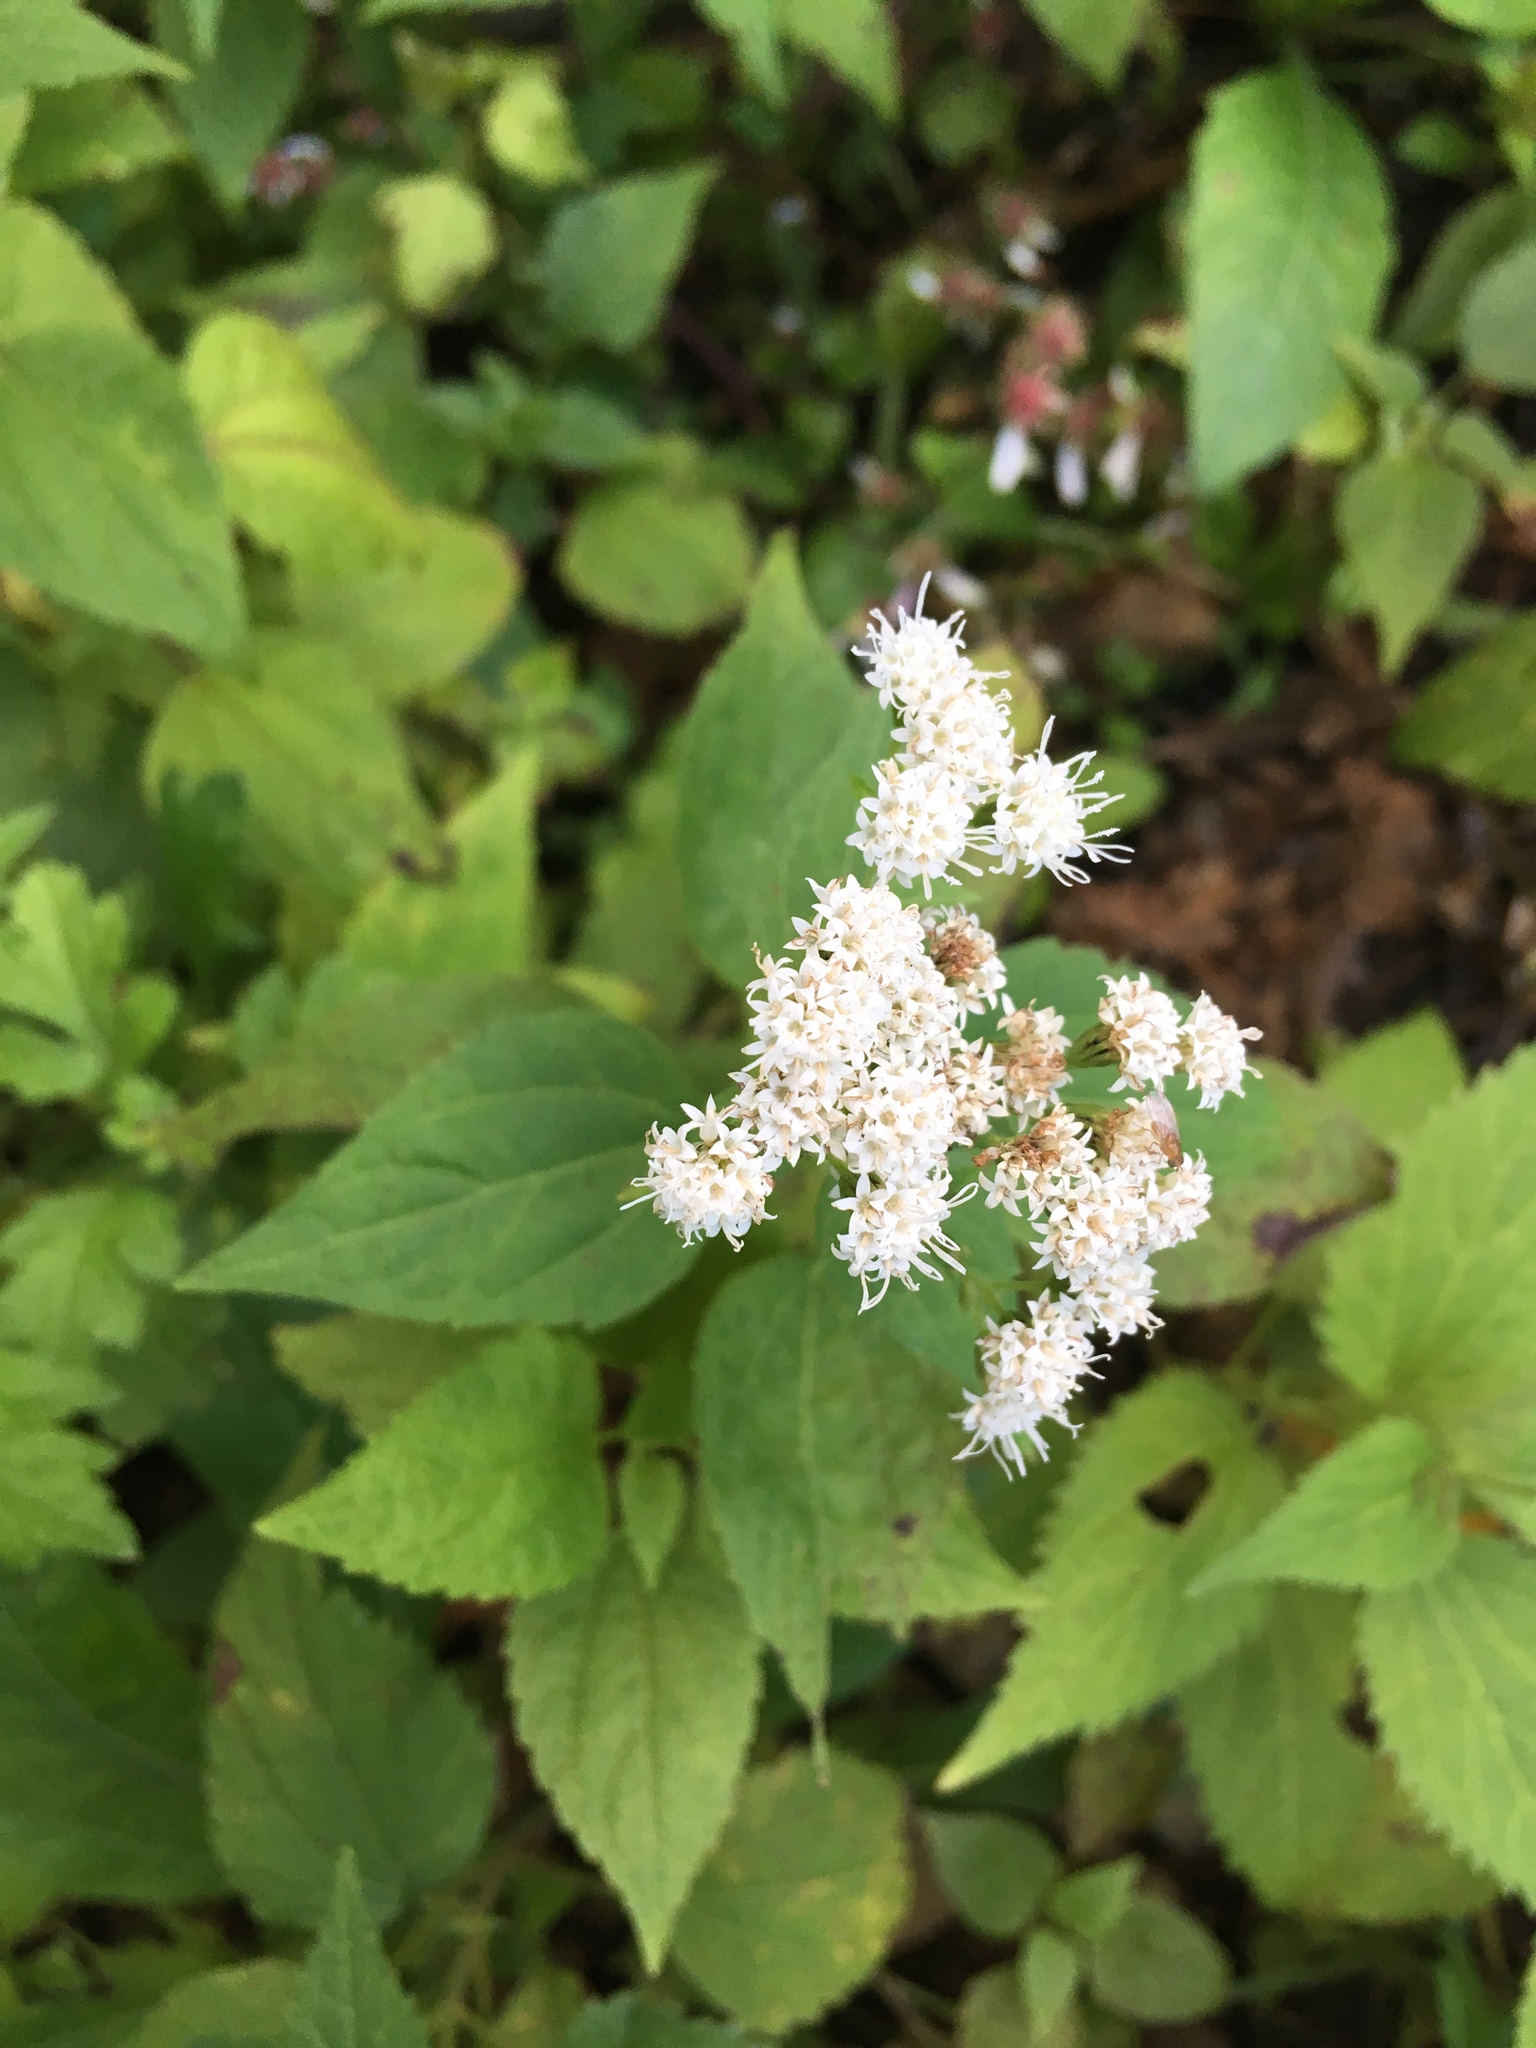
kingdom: Plantae
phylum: Tracheophyta
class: Magnoliopsida
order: Asterales
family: Asteraceae
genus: Ageratina
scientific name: Ageratina altissima
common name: White snakeroot
